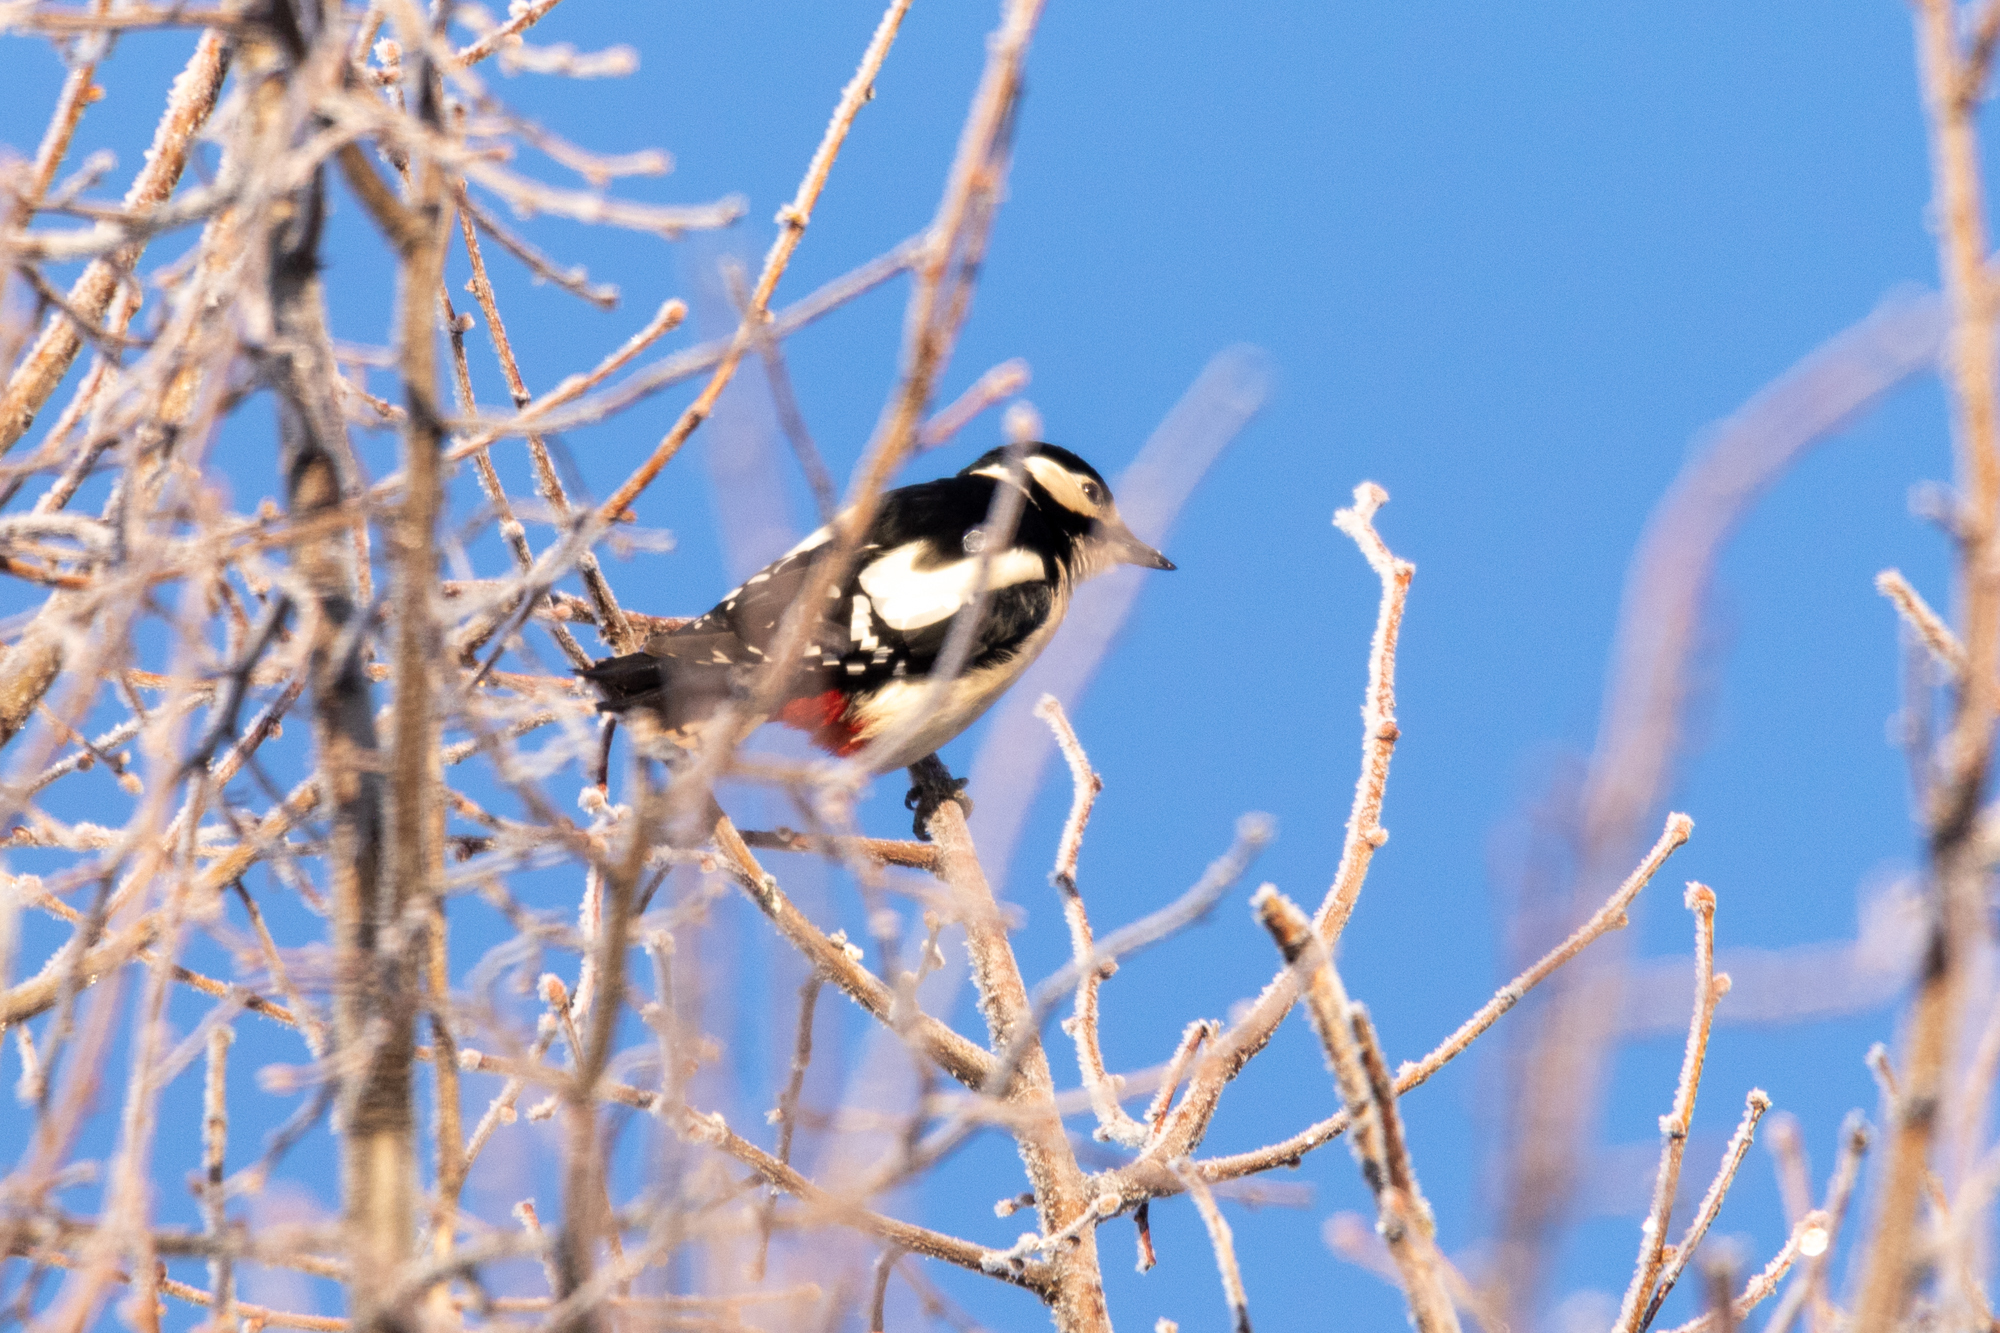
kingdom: Animalia
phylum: Chordata
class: Aves
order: Piciformes
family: Picidae
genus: Dendrocopos
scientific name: Dendrocopos major
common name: Great spotted woodpecker
